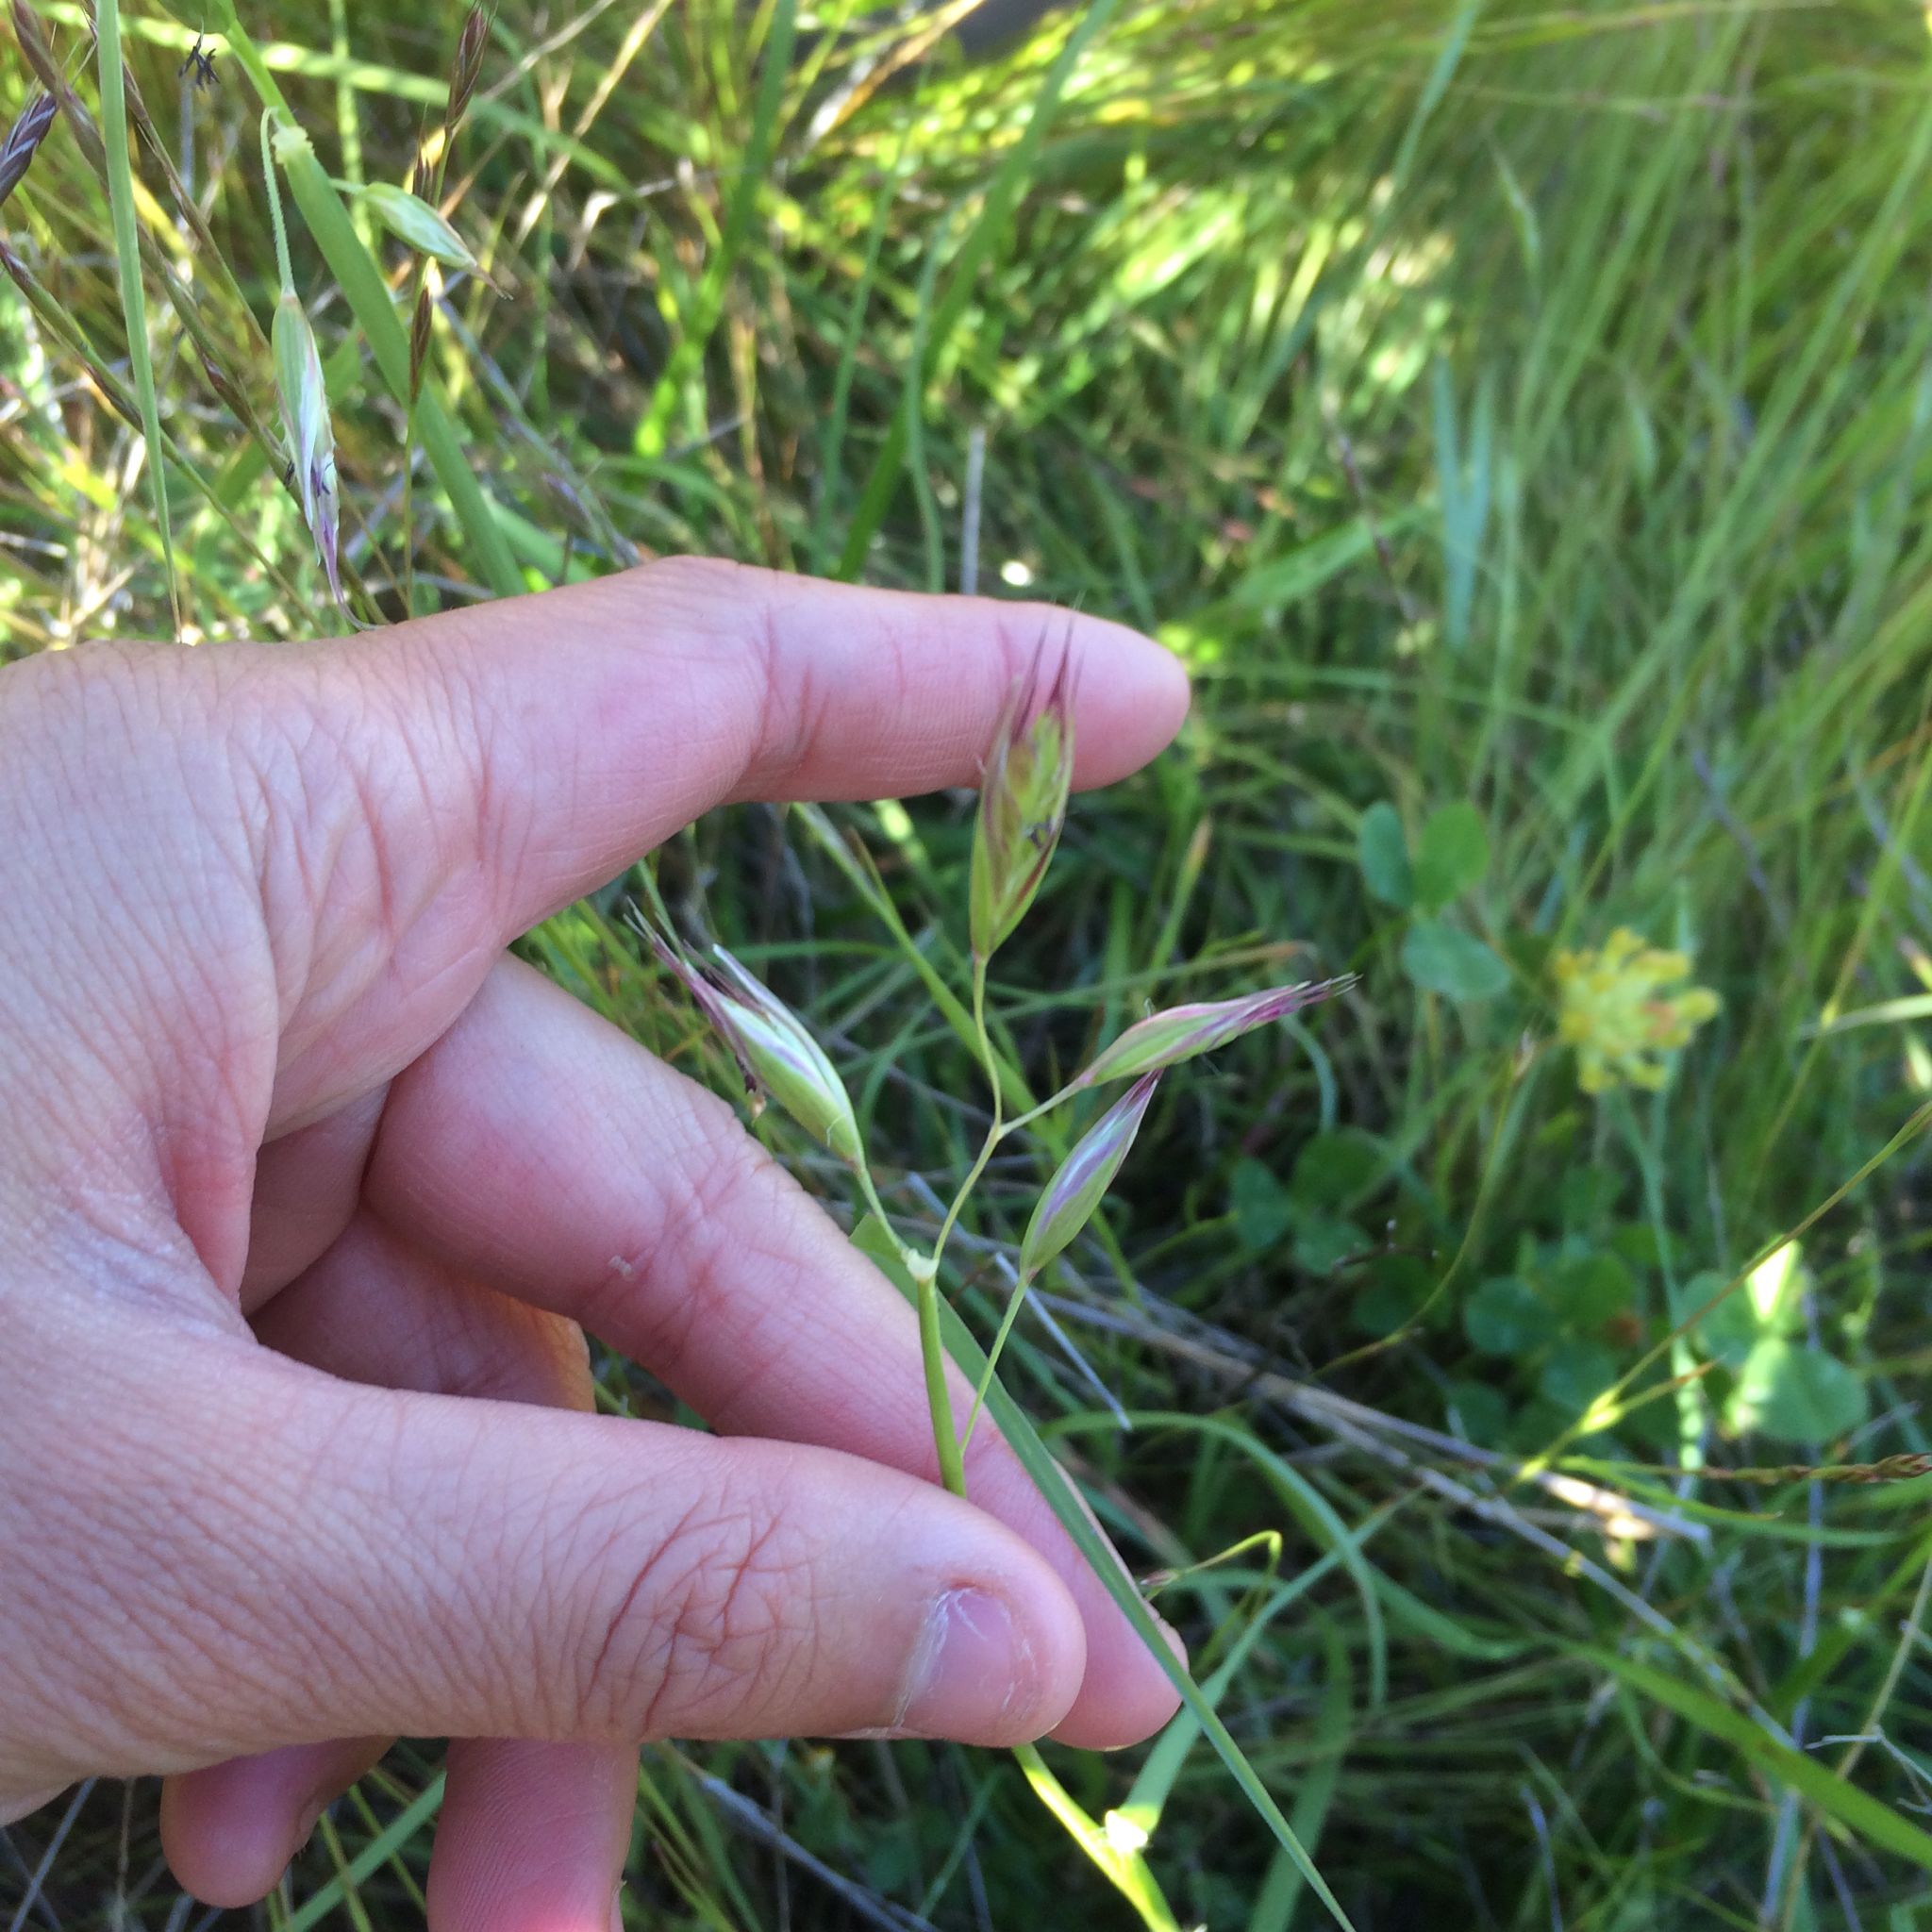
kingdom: Plantae
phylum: Tracheophyta
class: Liliopsida
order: Poales
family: Poaceae
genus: Danthonia
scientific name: Danthonia californica
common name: California oat grass
